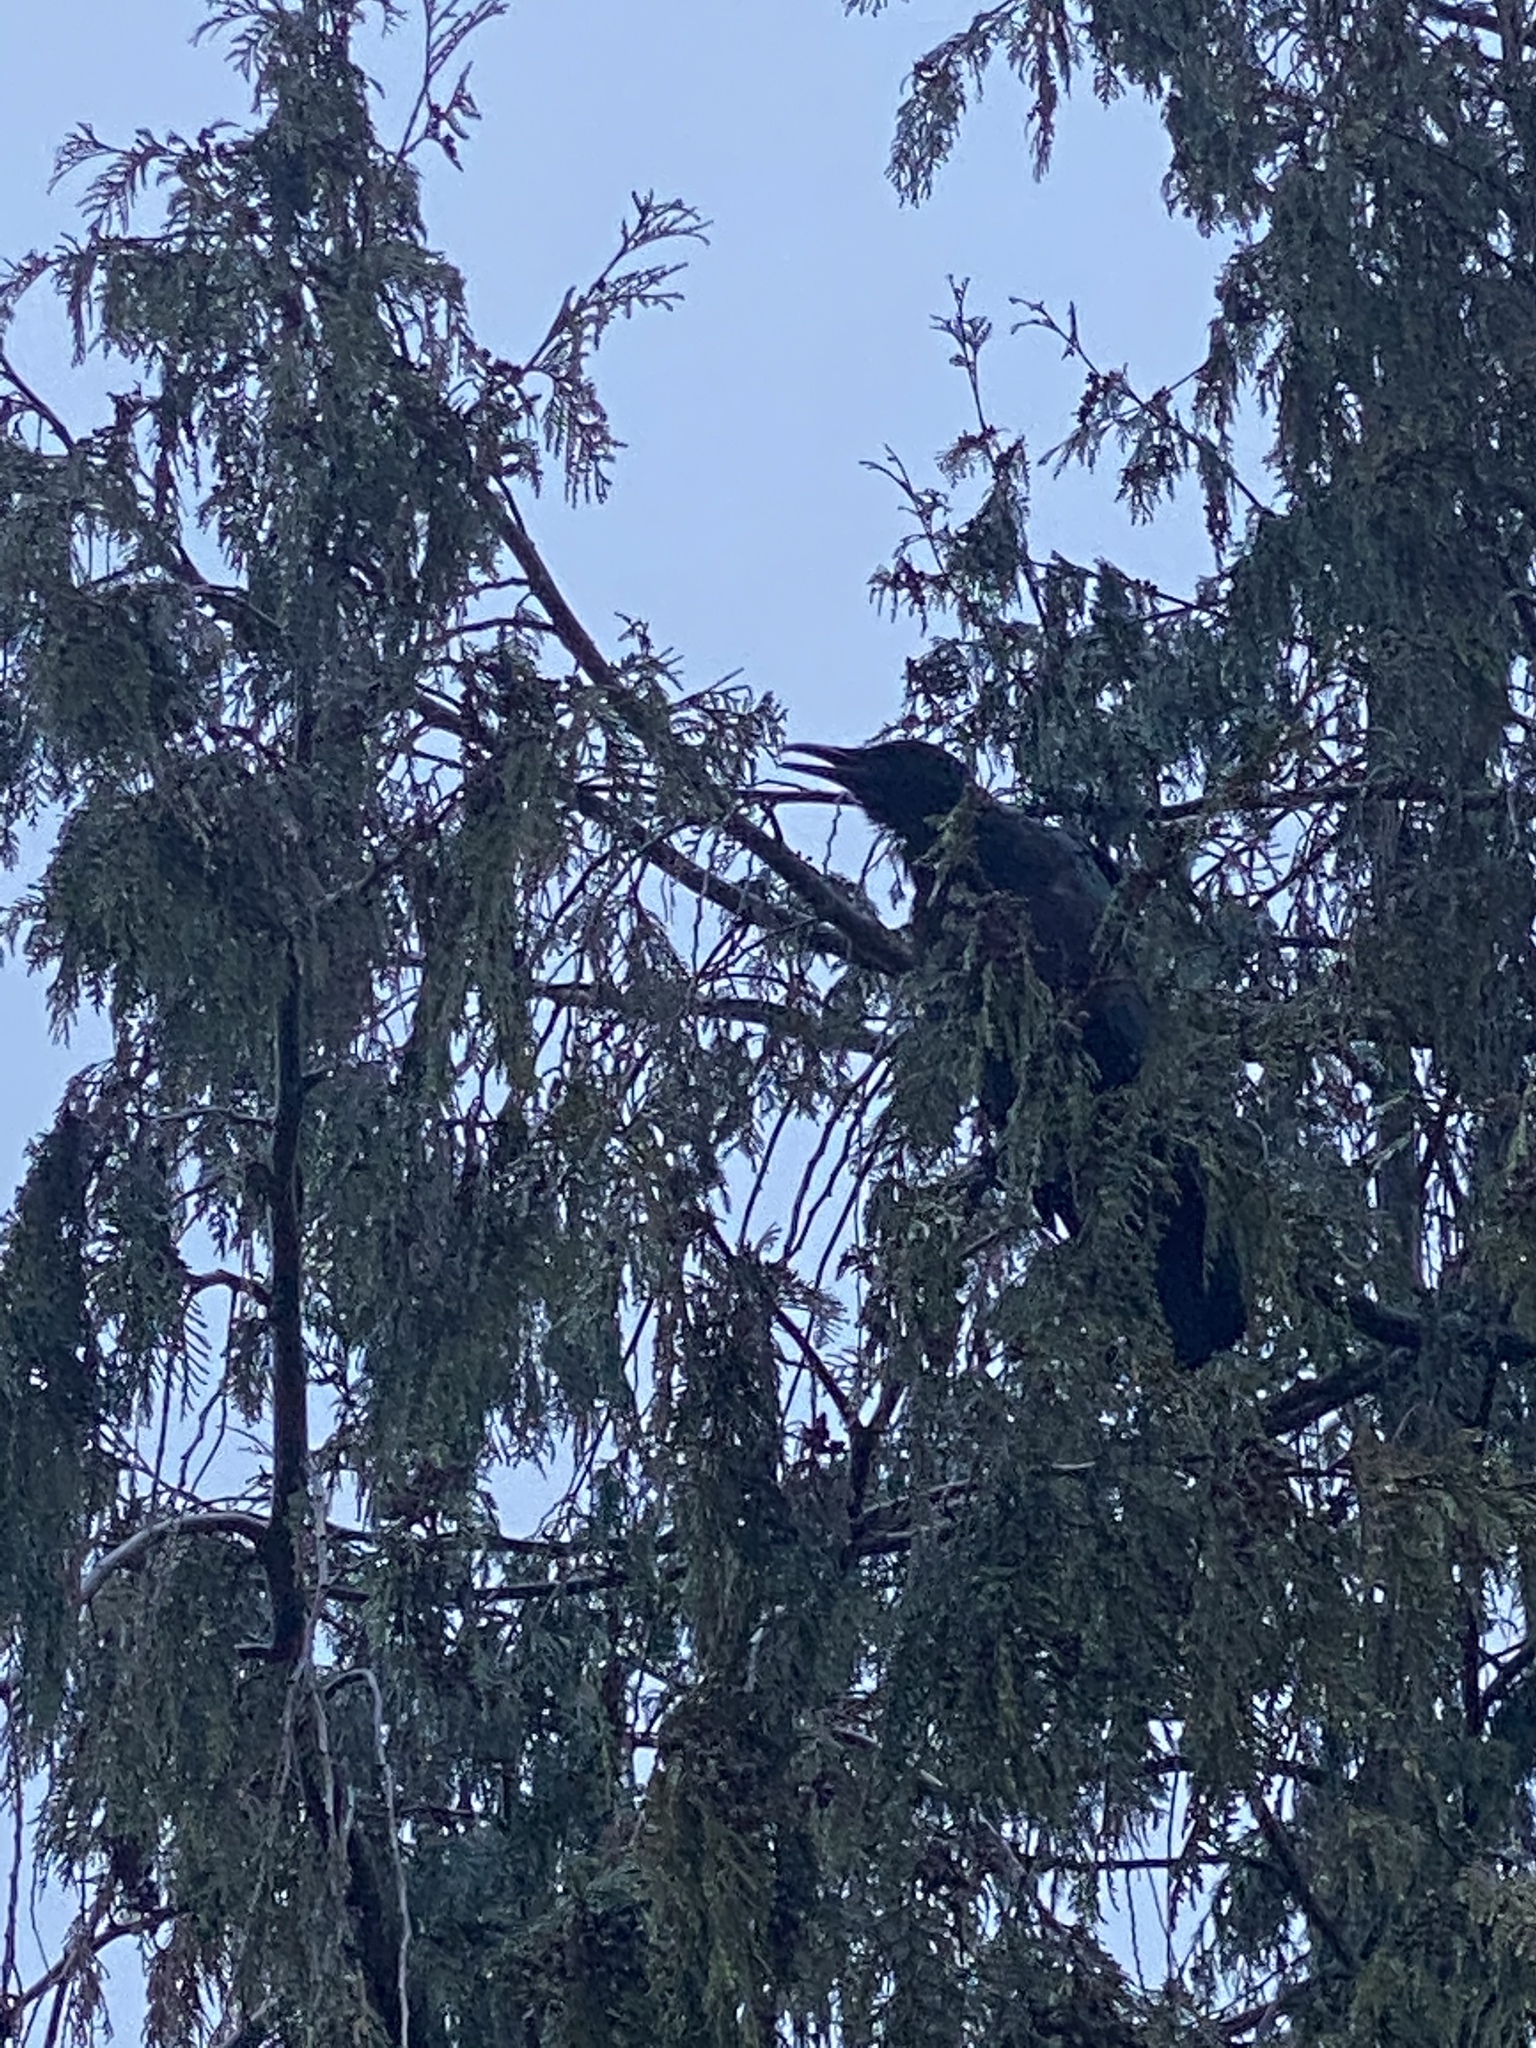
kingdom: Animalia
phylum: Chordata
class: Aves
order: Passeriformes
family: Corvidae
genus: Corvus
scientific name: Corvus brachyrhynchos
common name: American crow
